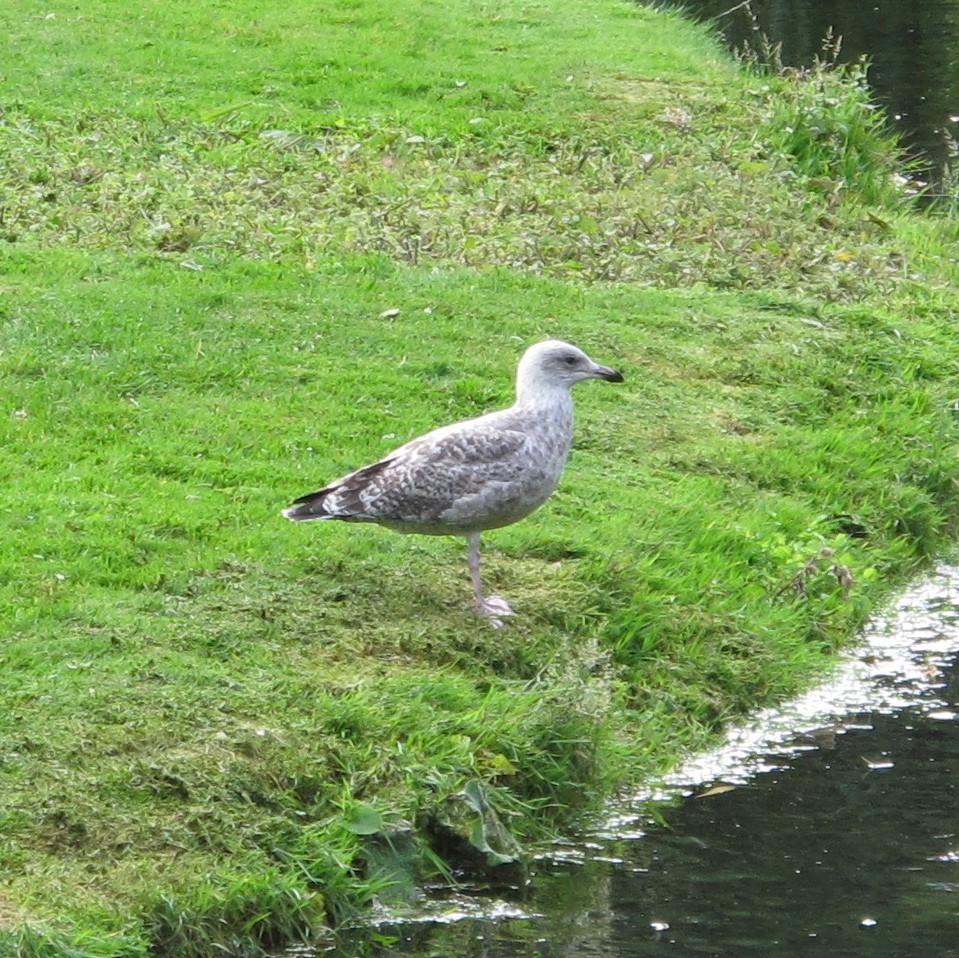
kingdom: Animalia
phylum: Chordata
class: Aves
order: Charadriiformes
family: Laridae
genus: Larus
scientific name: Larus argentatus
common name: Herring gull
